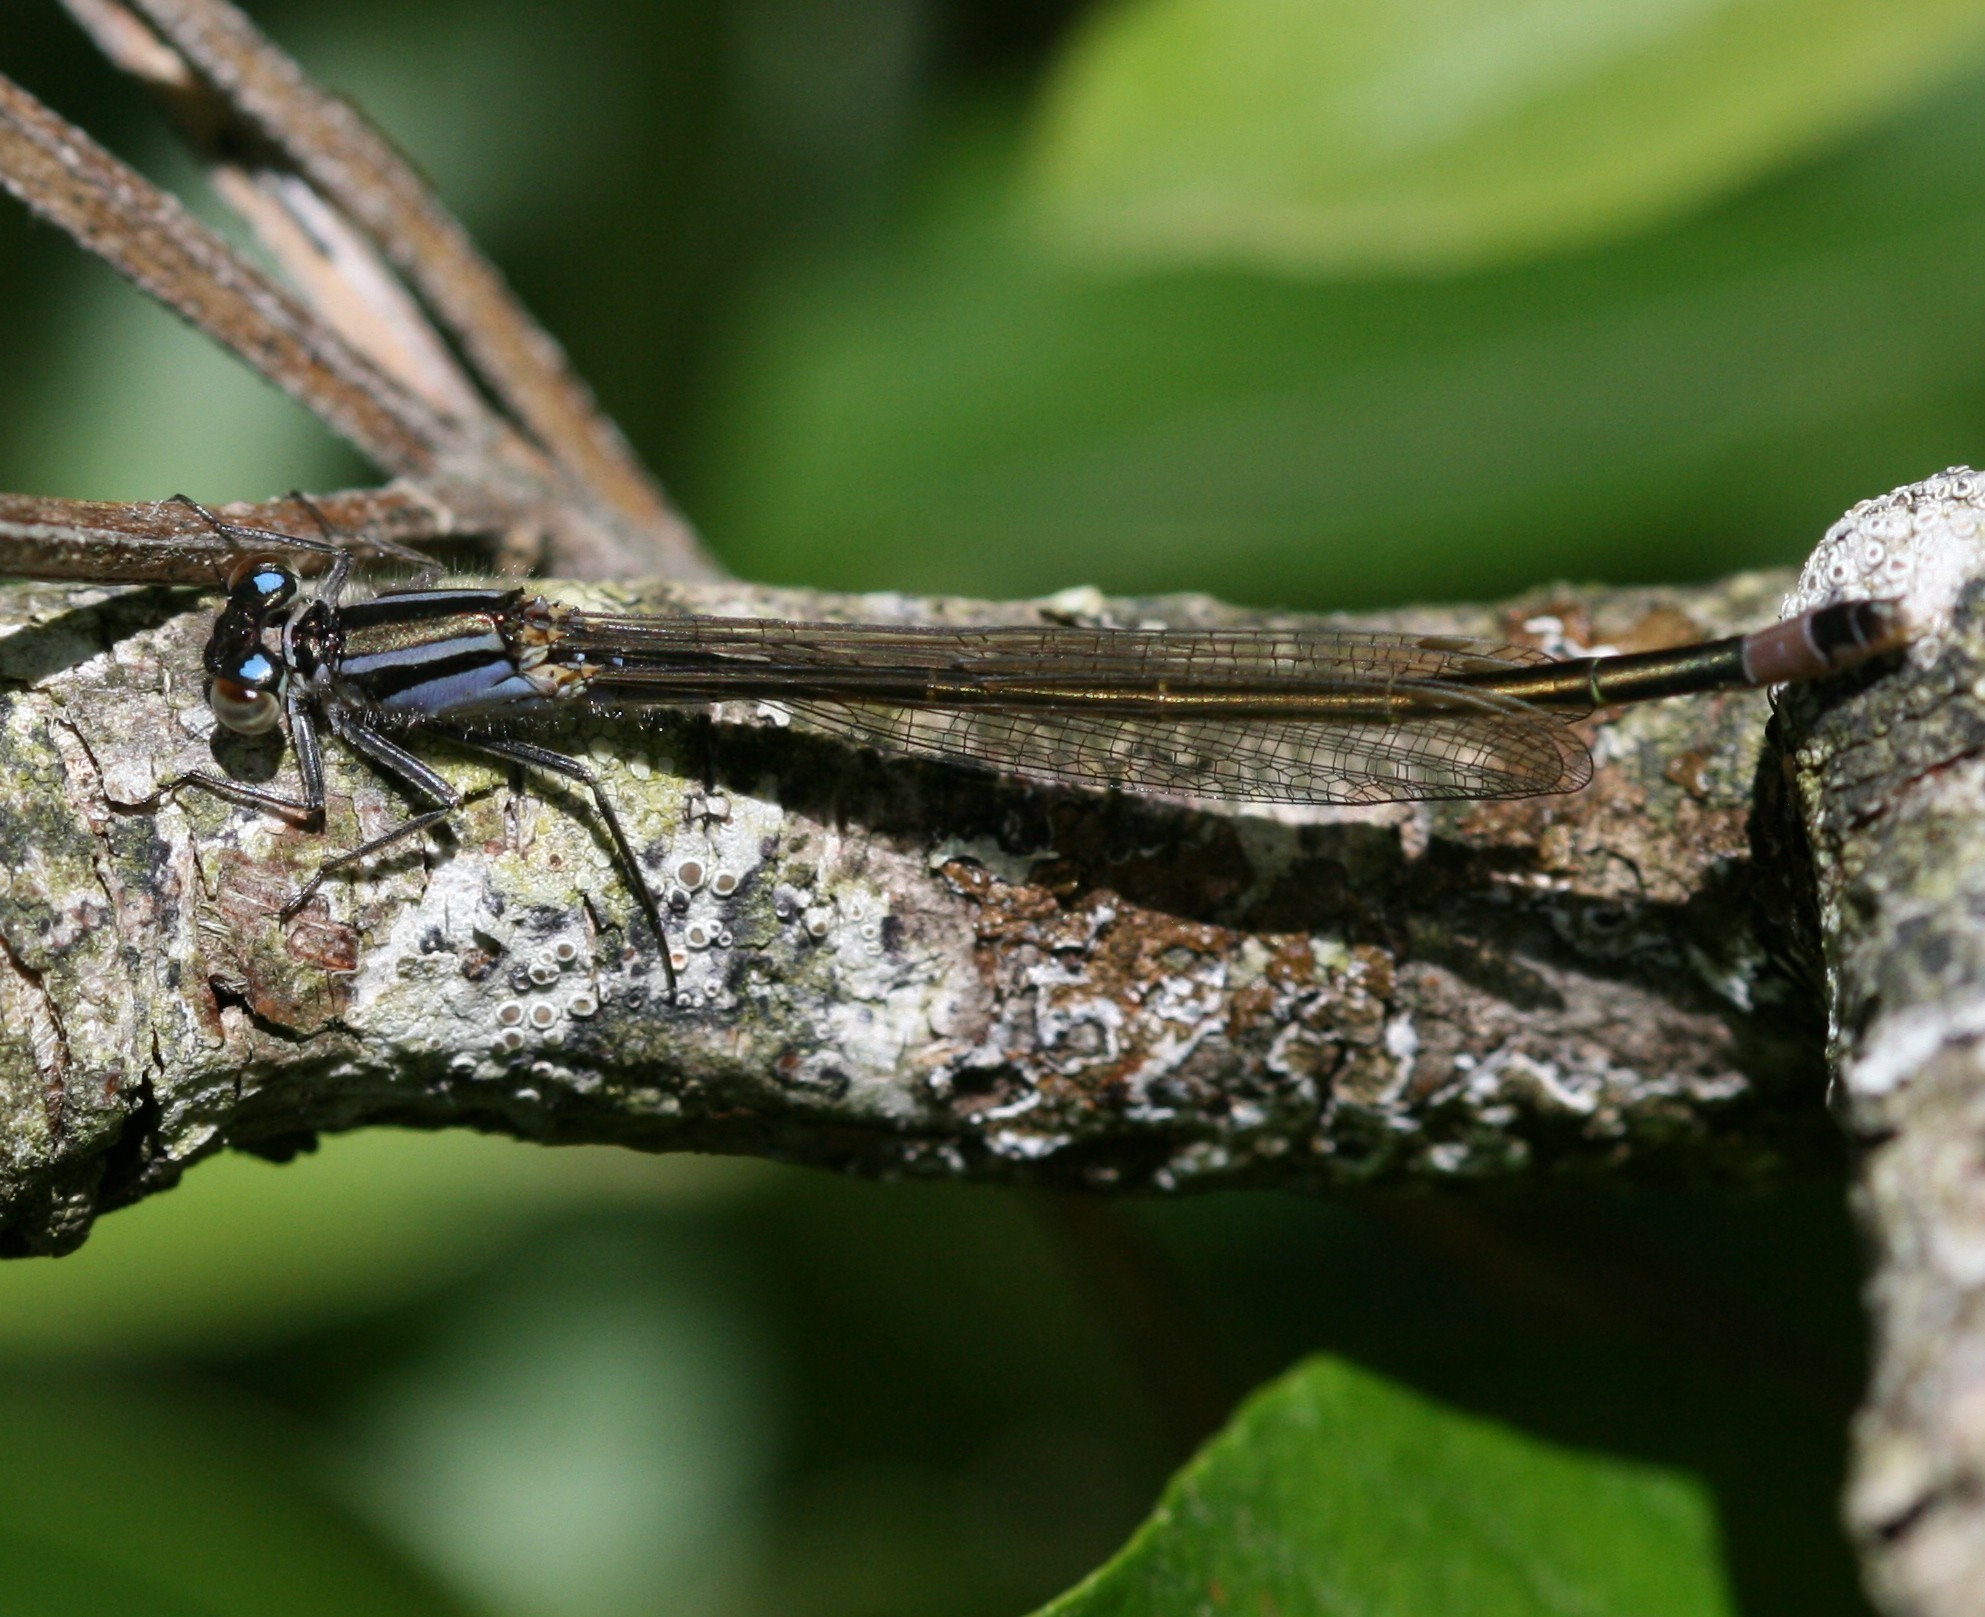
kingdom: Animalia
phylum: Arthropoda
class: Insecta
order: Odonata
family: Coenagrionidae
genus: Ischnura
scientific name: Ischnura elegans
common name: Blue-tailed damselfly
